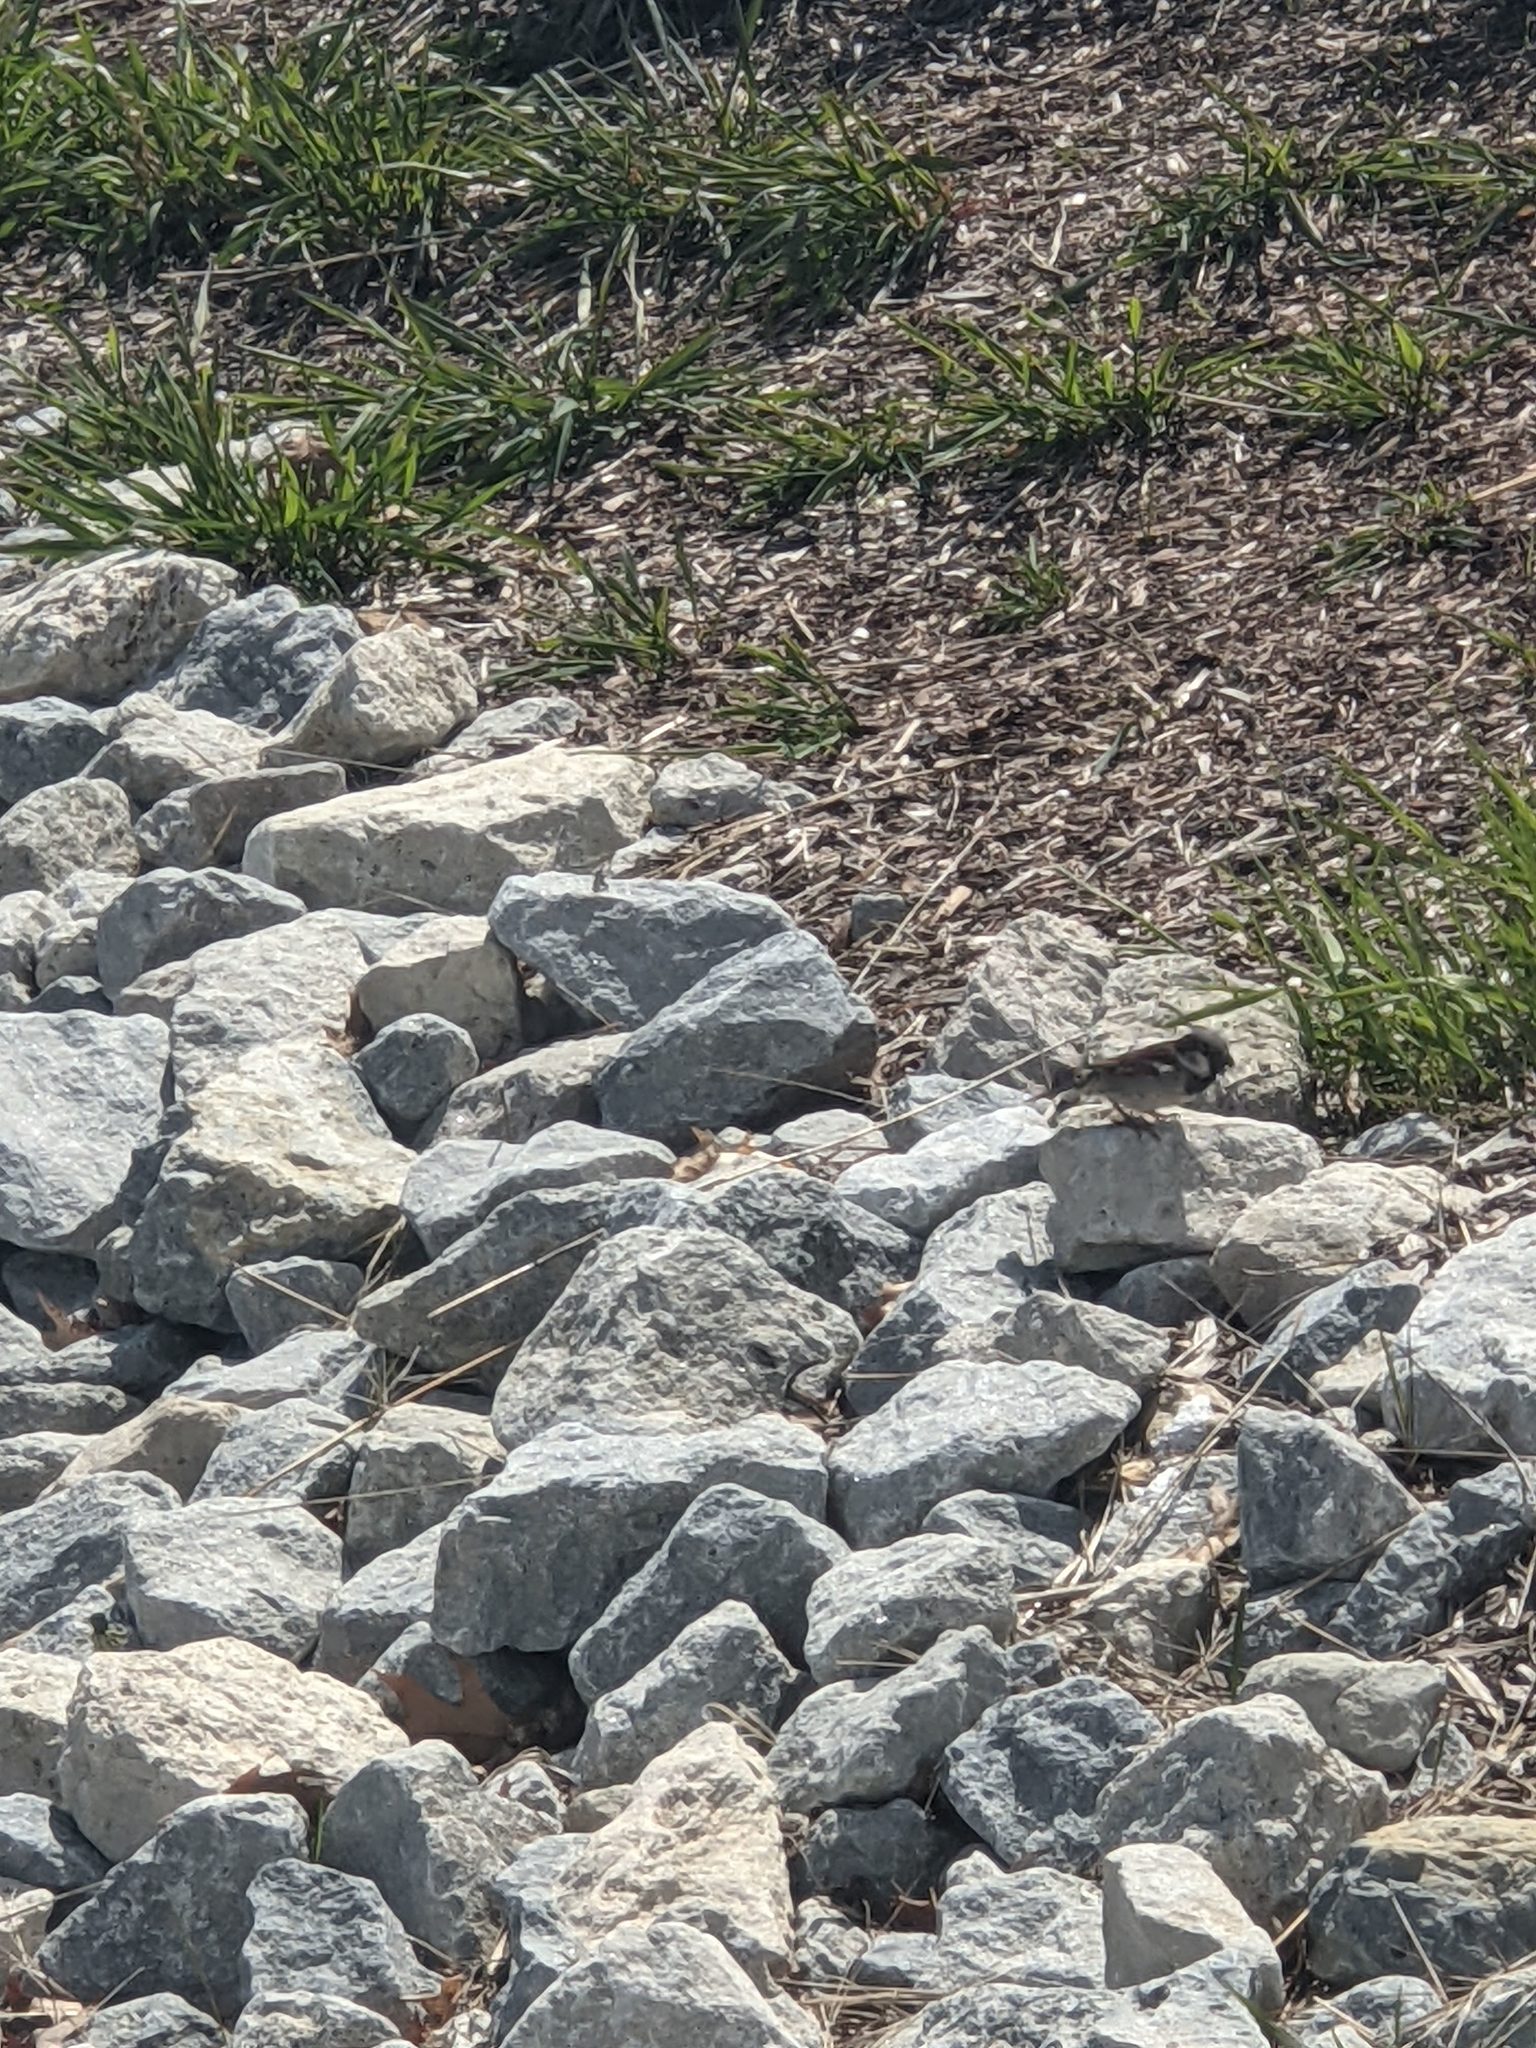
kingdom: Animalia
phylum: Chordata
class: Aves
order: Passeriformes
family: Passeridae
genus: Passer
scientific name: Passer domesticus
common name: House sparrow
